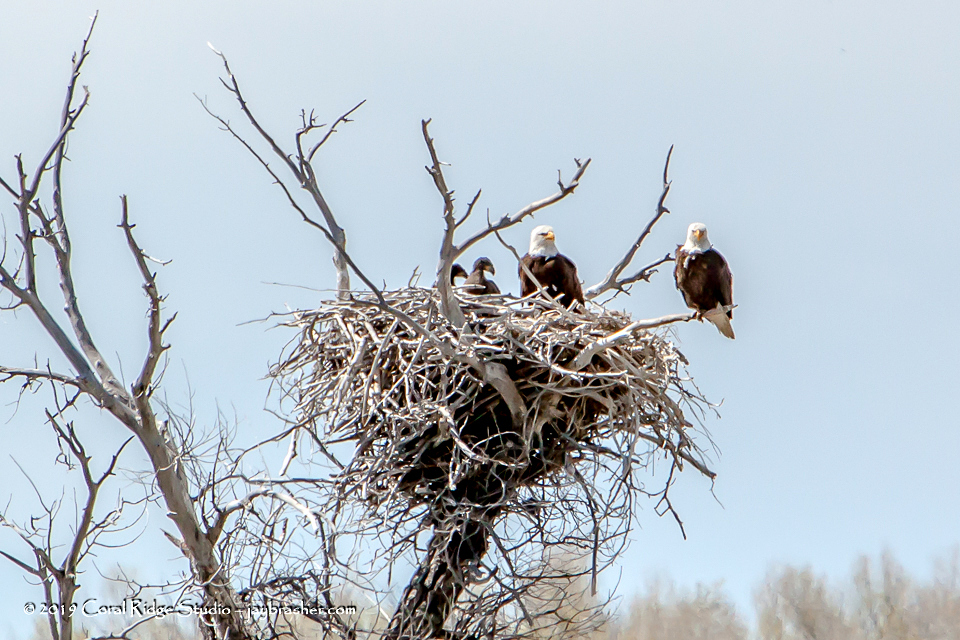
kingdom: Animalia
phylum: Chordata
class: Aves
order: Accipitriformes
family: Accipitridae
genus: Haliaeetus
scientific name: Haliaeetus leucocephalus
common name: Bald eagle
